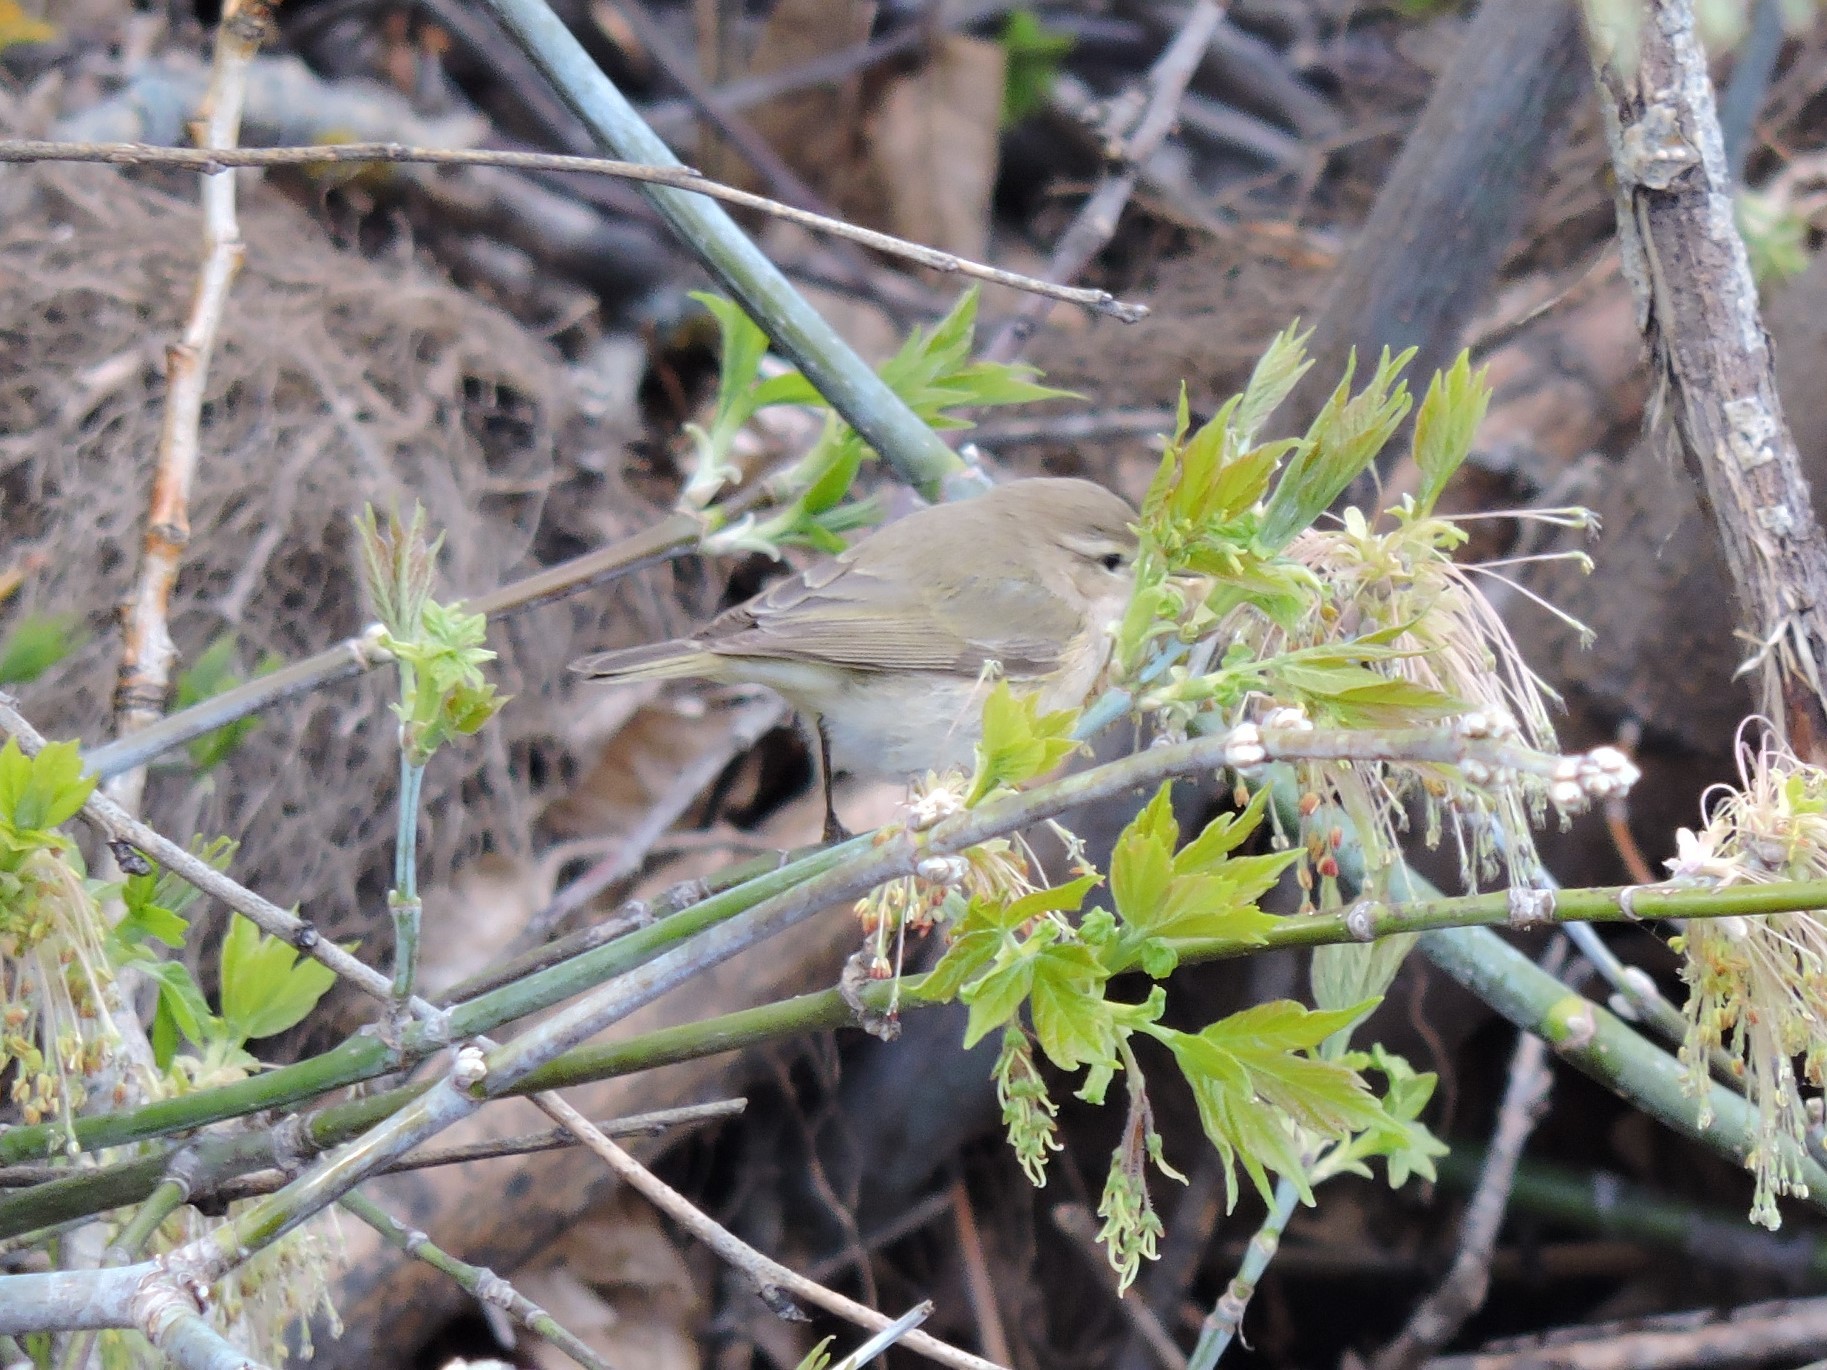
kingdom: Animalia
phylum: Chordata
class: Aves
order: Passeriformes
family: Phylloscopidae
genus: Phylloscopus
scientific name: Phylloscopus collybita
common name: Common chiffchaff
